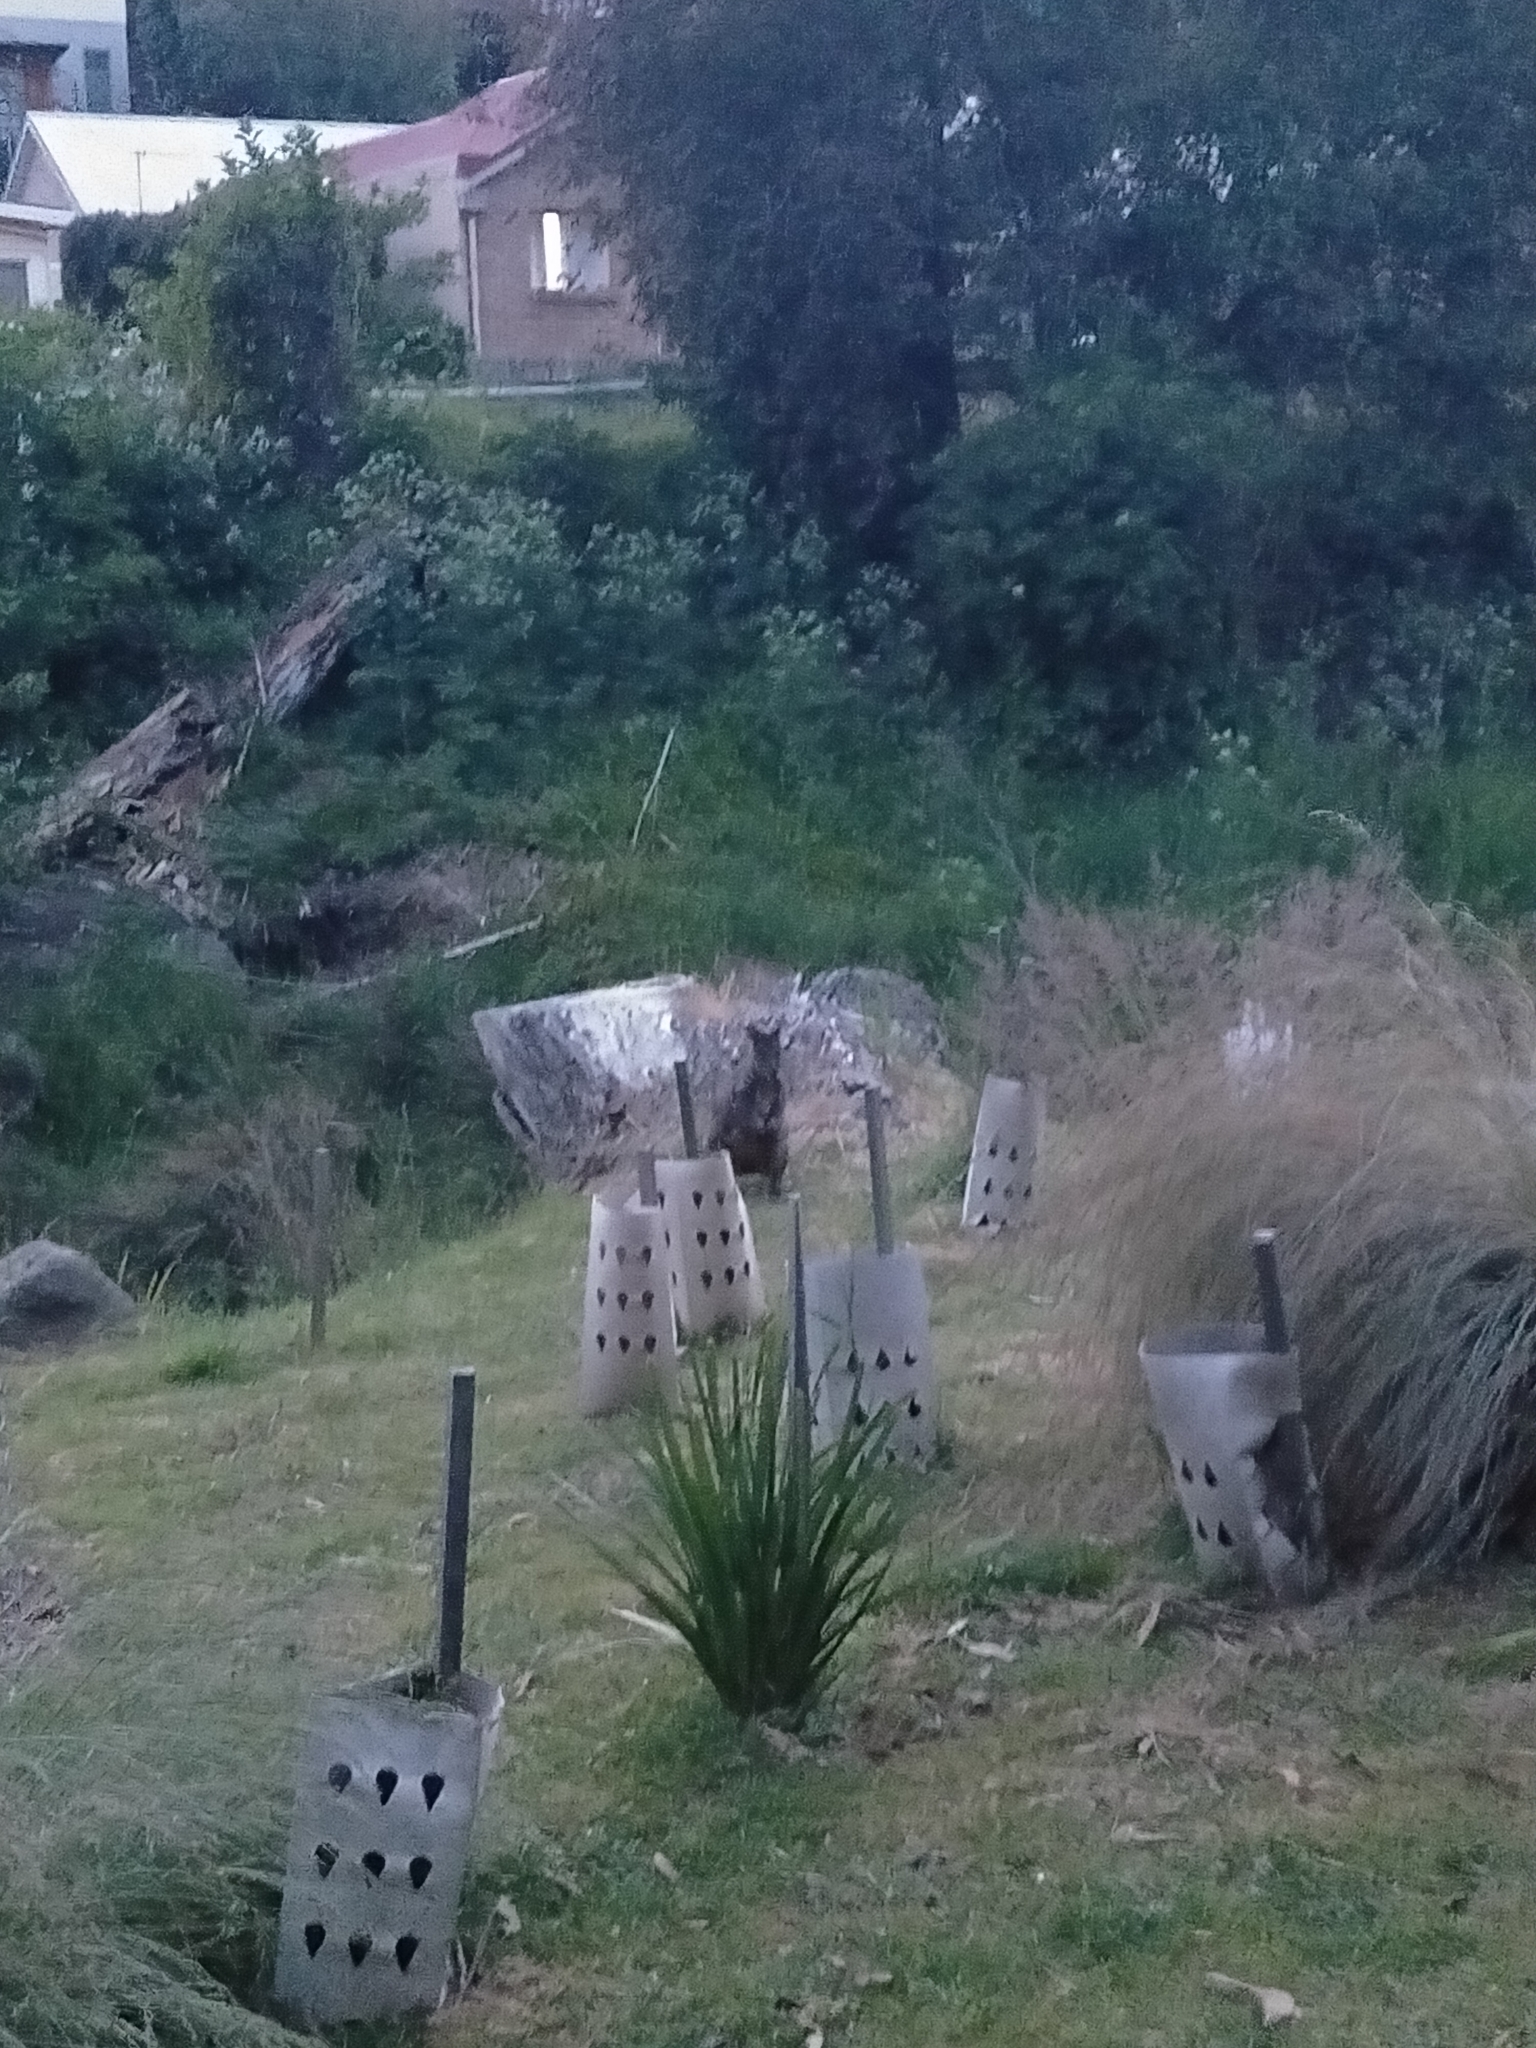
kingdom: Animalia
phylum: Chordata
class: Mammalia
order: Diprotodontia
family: Macropodidae
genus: Thylogale
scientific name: Thylogale billardierii
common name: Tasmanian pademelon
